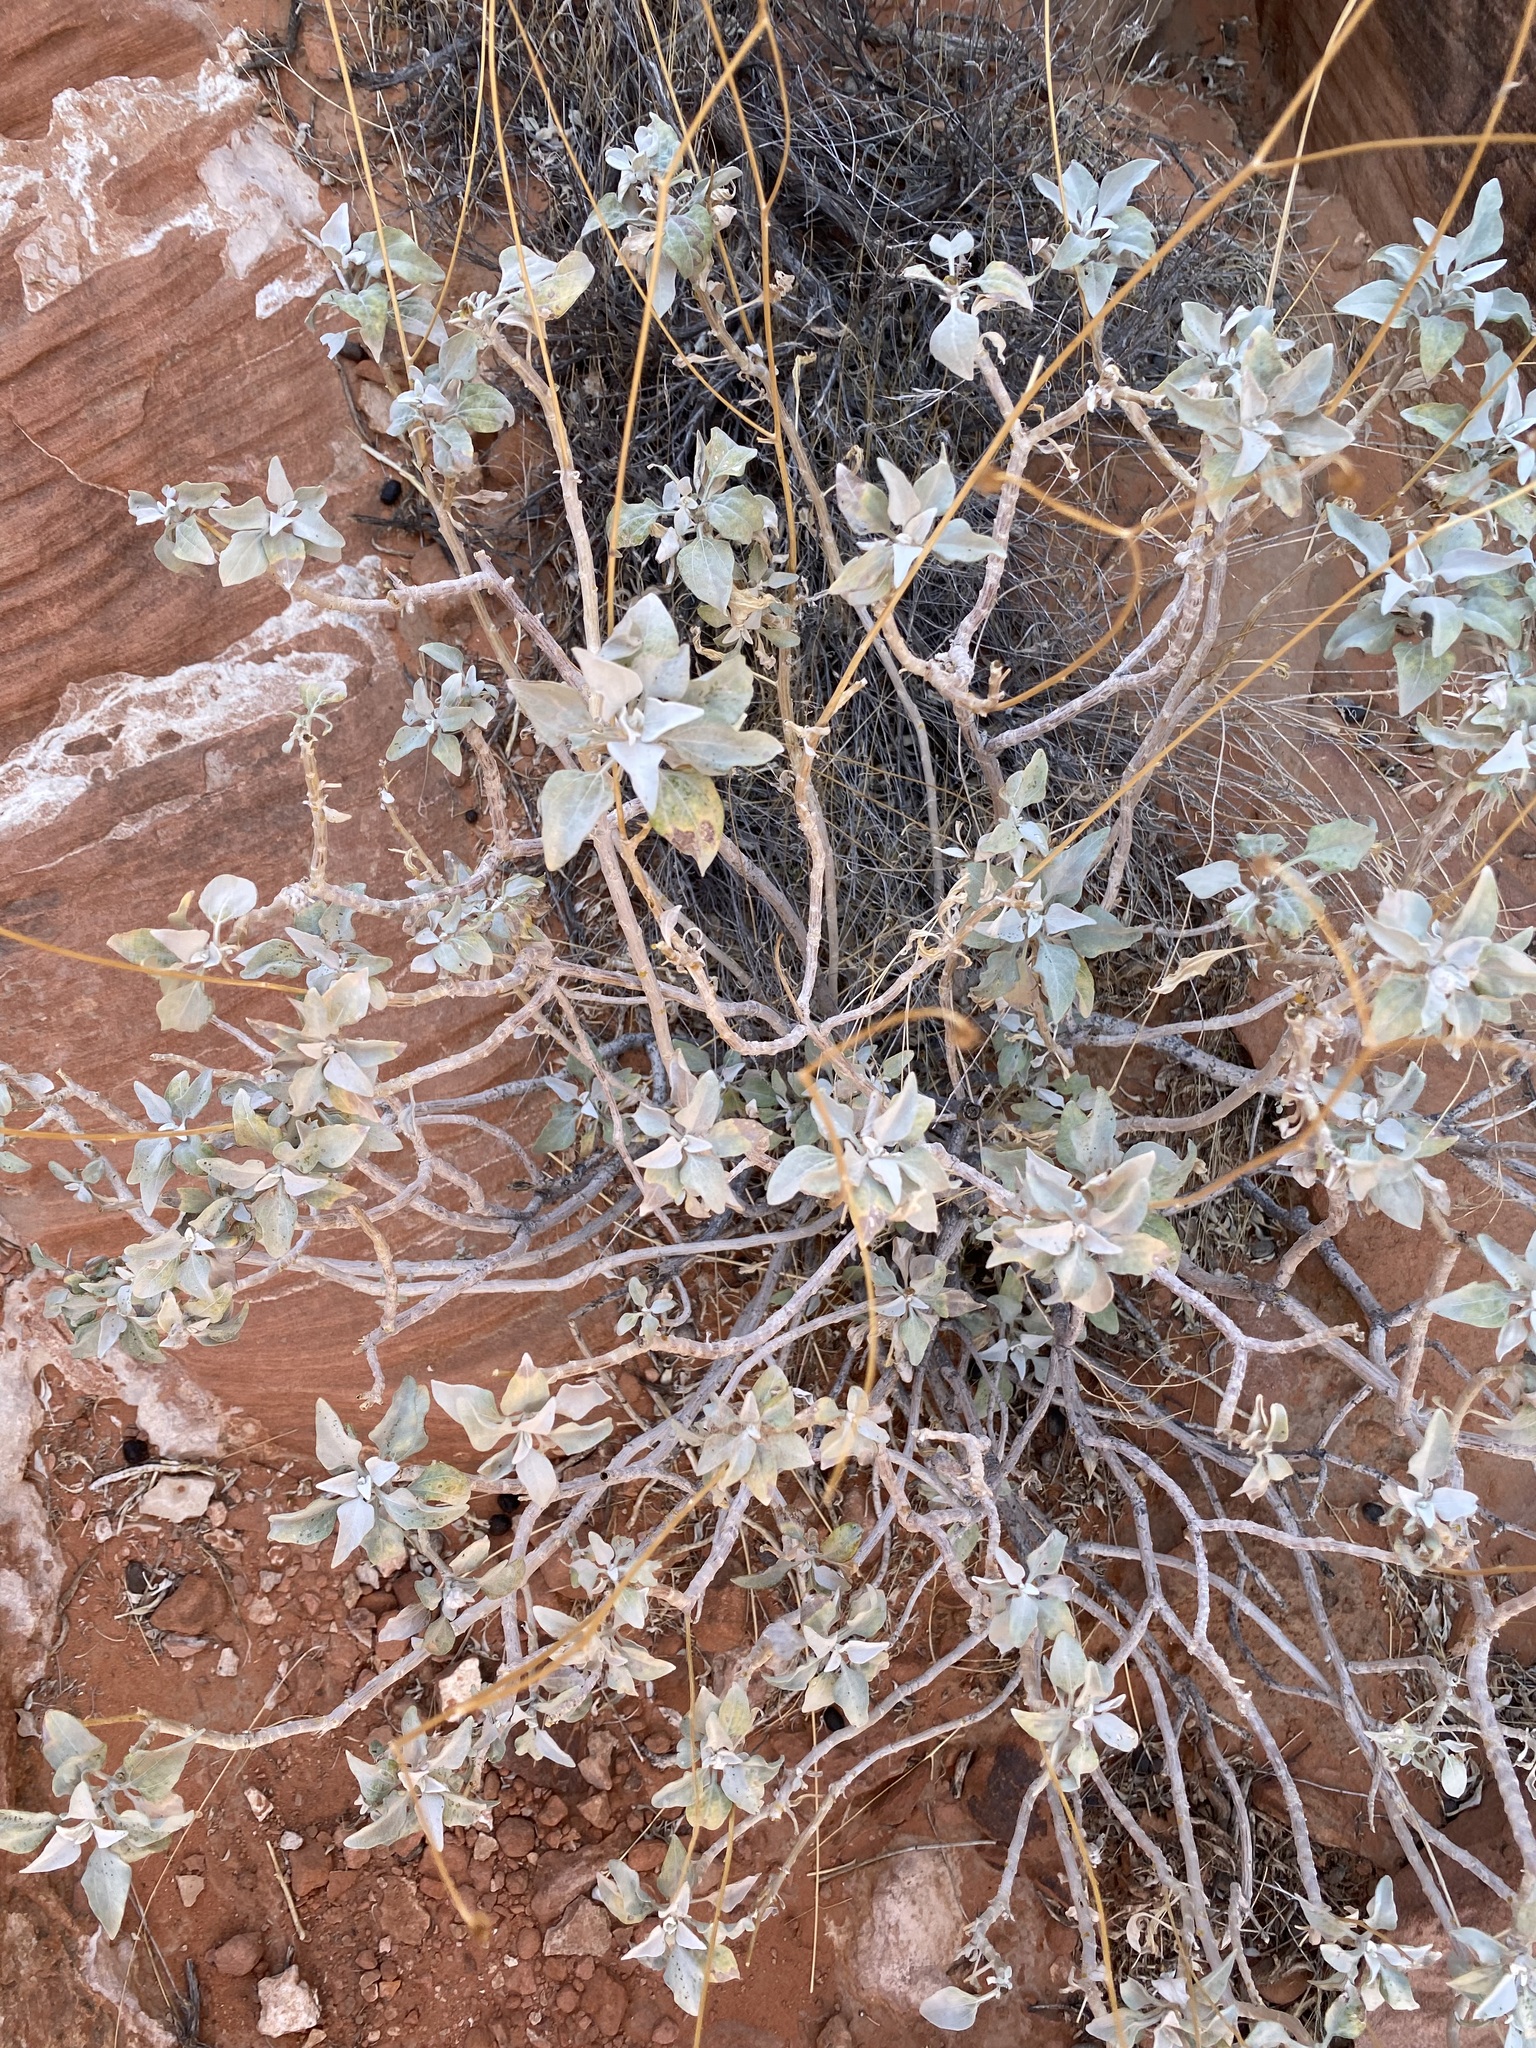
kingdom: Plantae
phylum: Tracheophyta
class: Magnoliopsida
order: Asterales
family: Asteraceae
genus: Encelia
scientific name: Encelia farinosa
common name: Brittlebush
